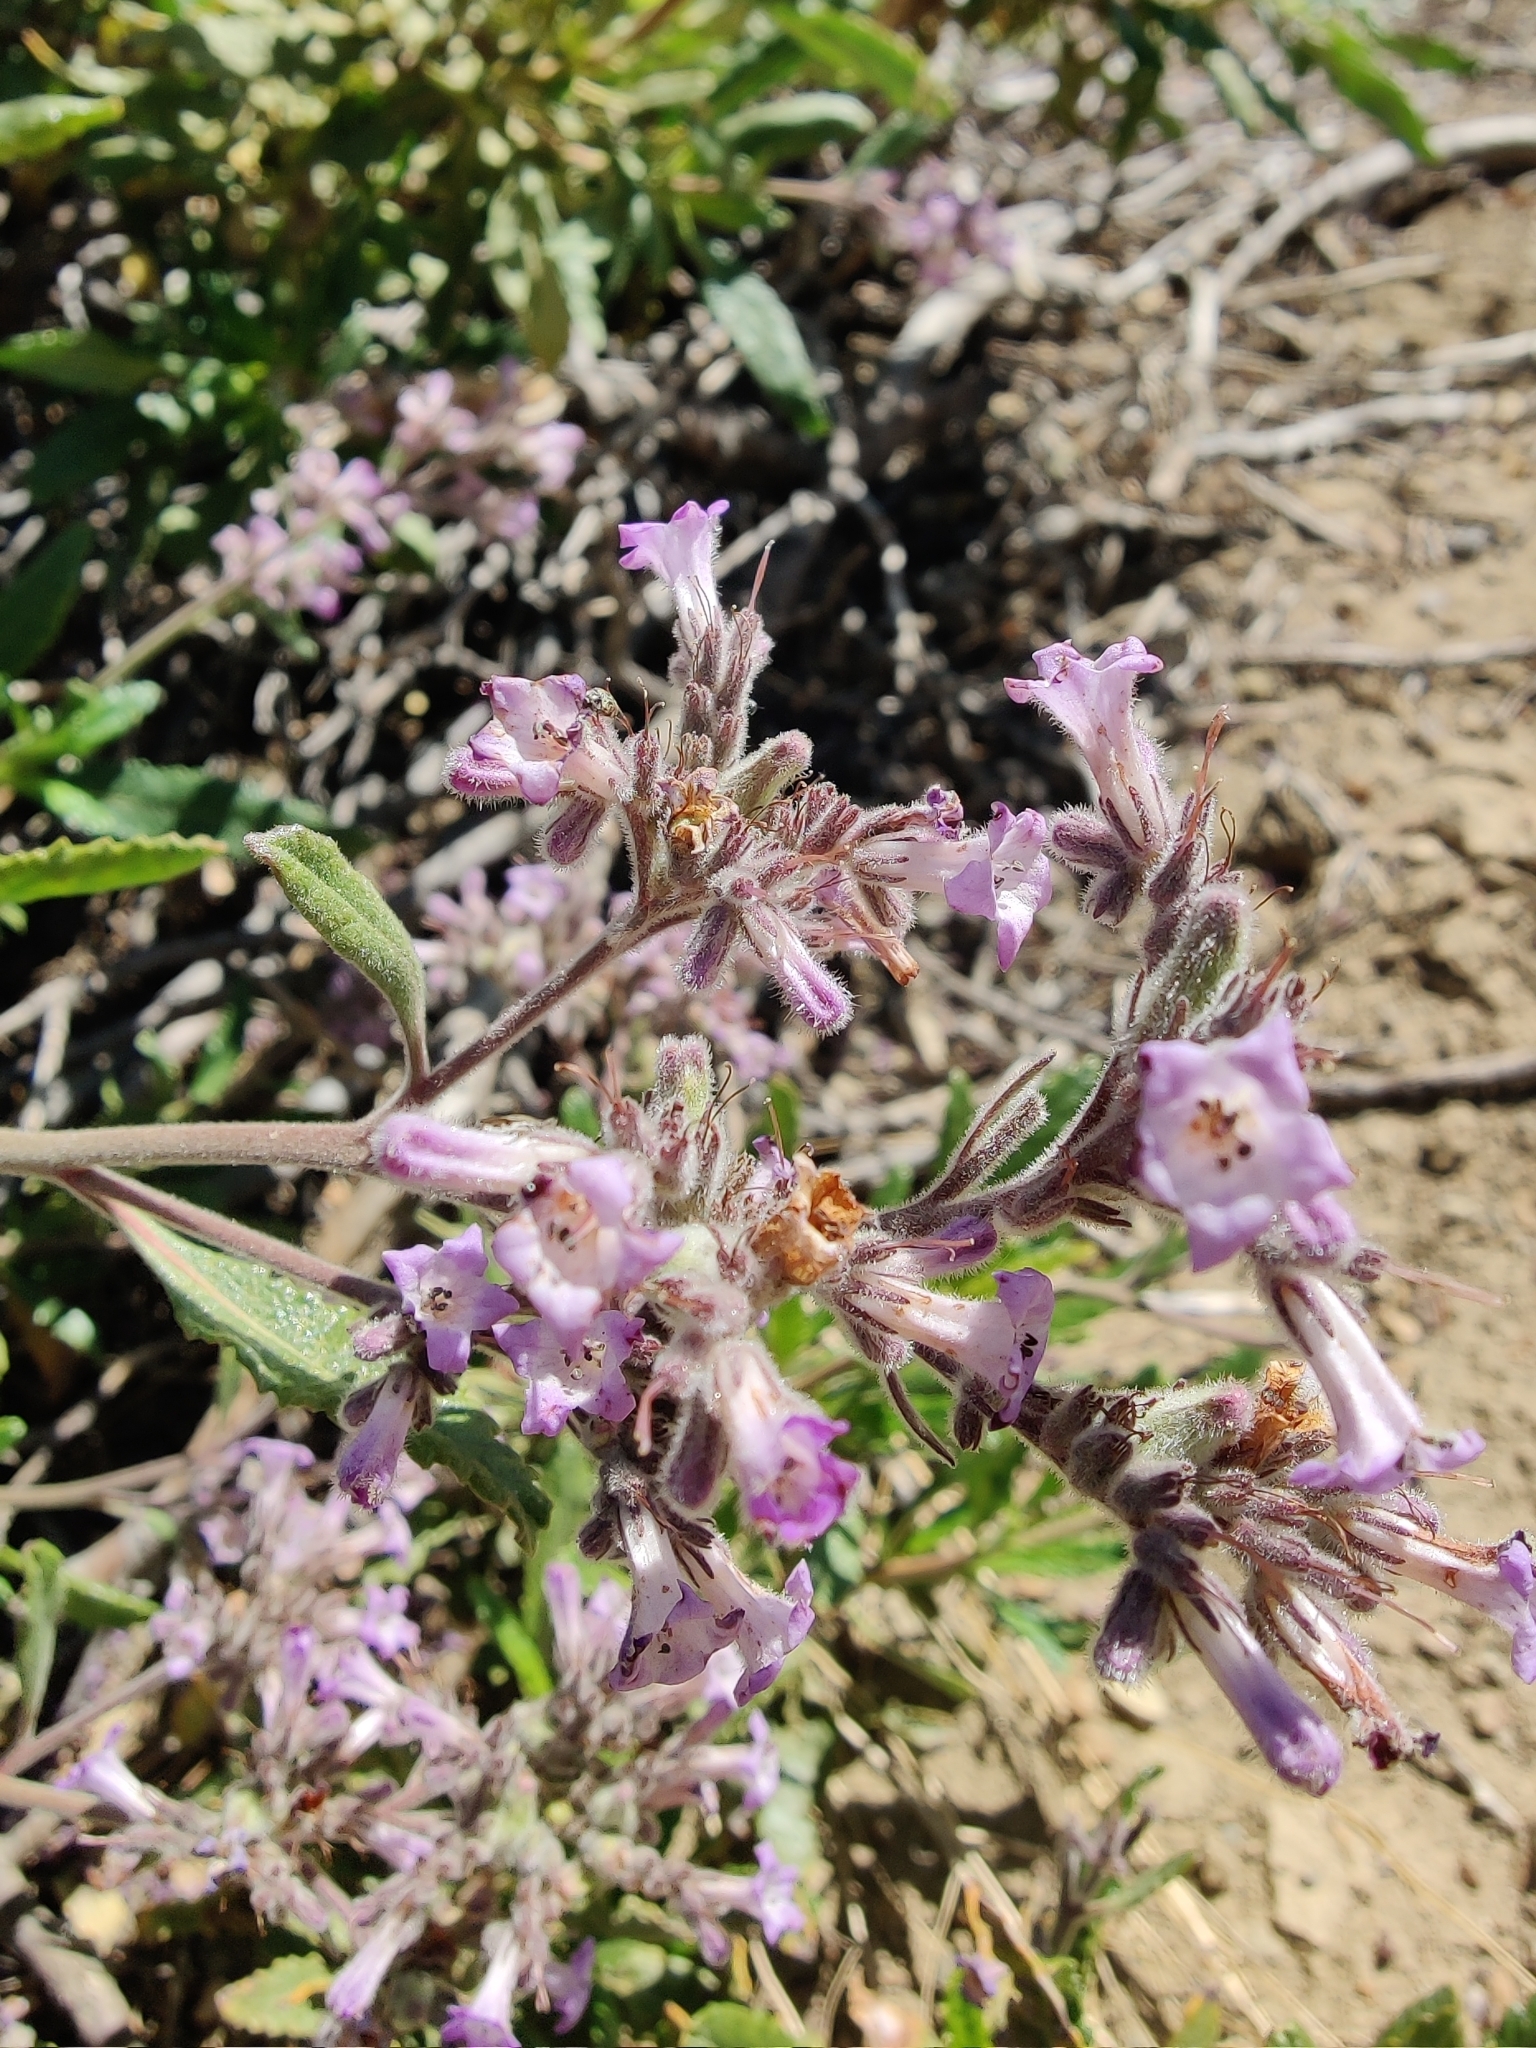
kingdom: Plantae
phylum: Tracheophyta
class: Magnoliopsida
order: Boraginales
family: Namaceae
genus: Eriodictyon
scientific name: Eriodictyon crassifolium
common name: Thick-leaf yerba-santa
